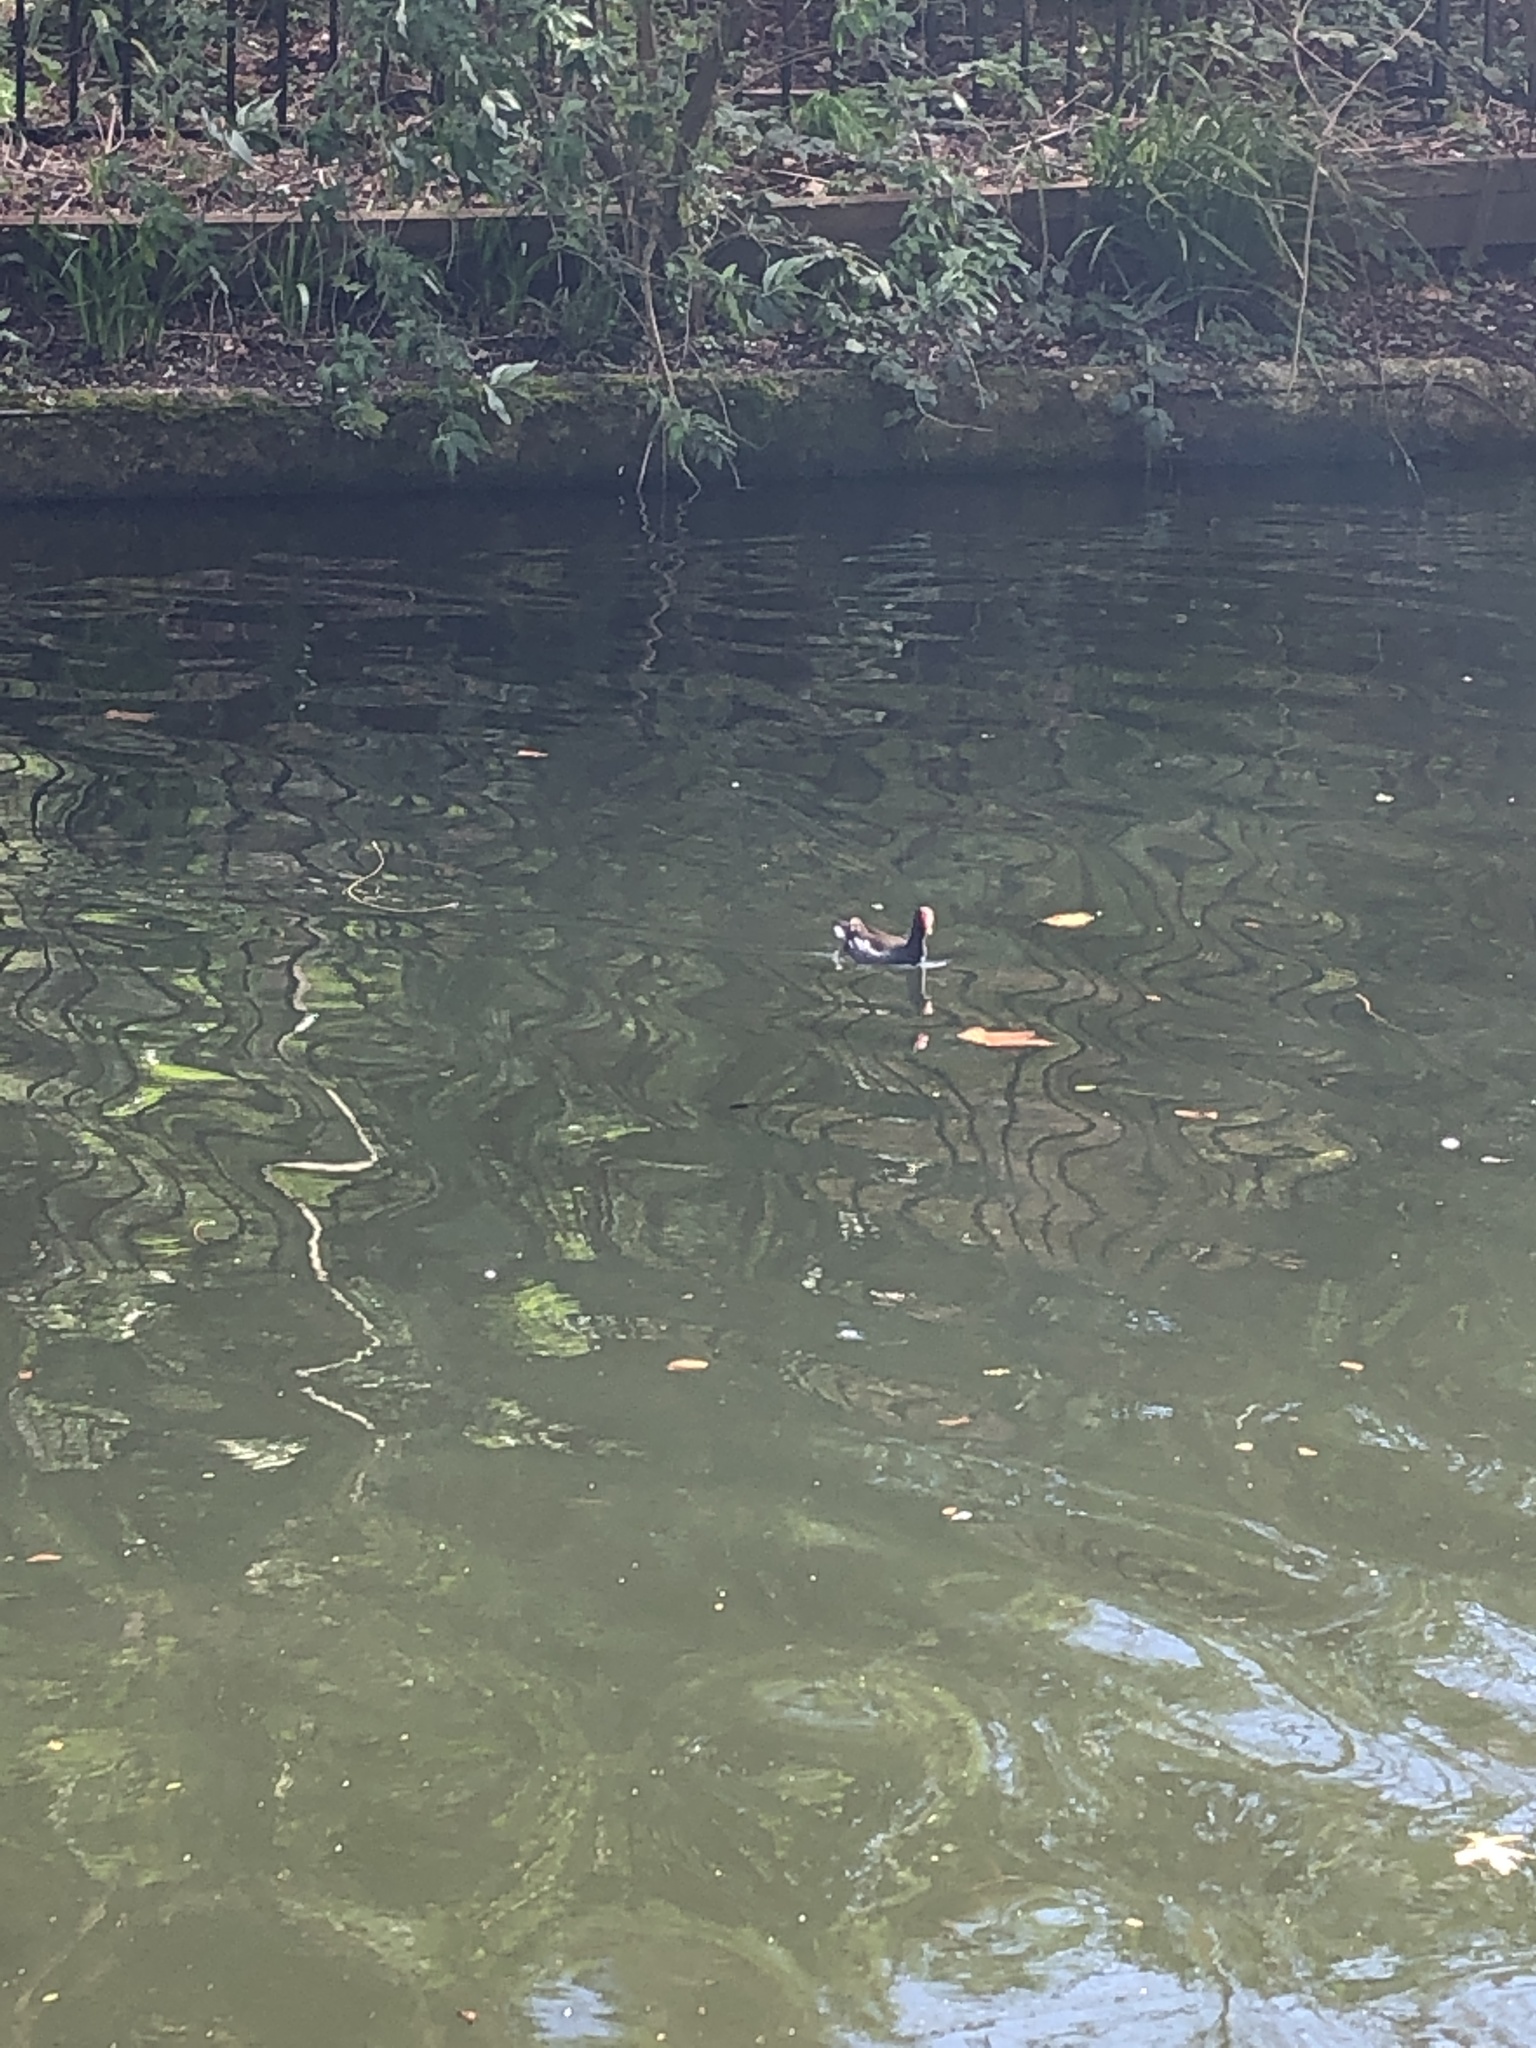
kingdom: Animalia
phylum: Chordata
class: Aves
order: Gruiformes
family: Rallidae
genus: Gallinula
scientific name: Gallinula chloropus
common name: Common moorhen
